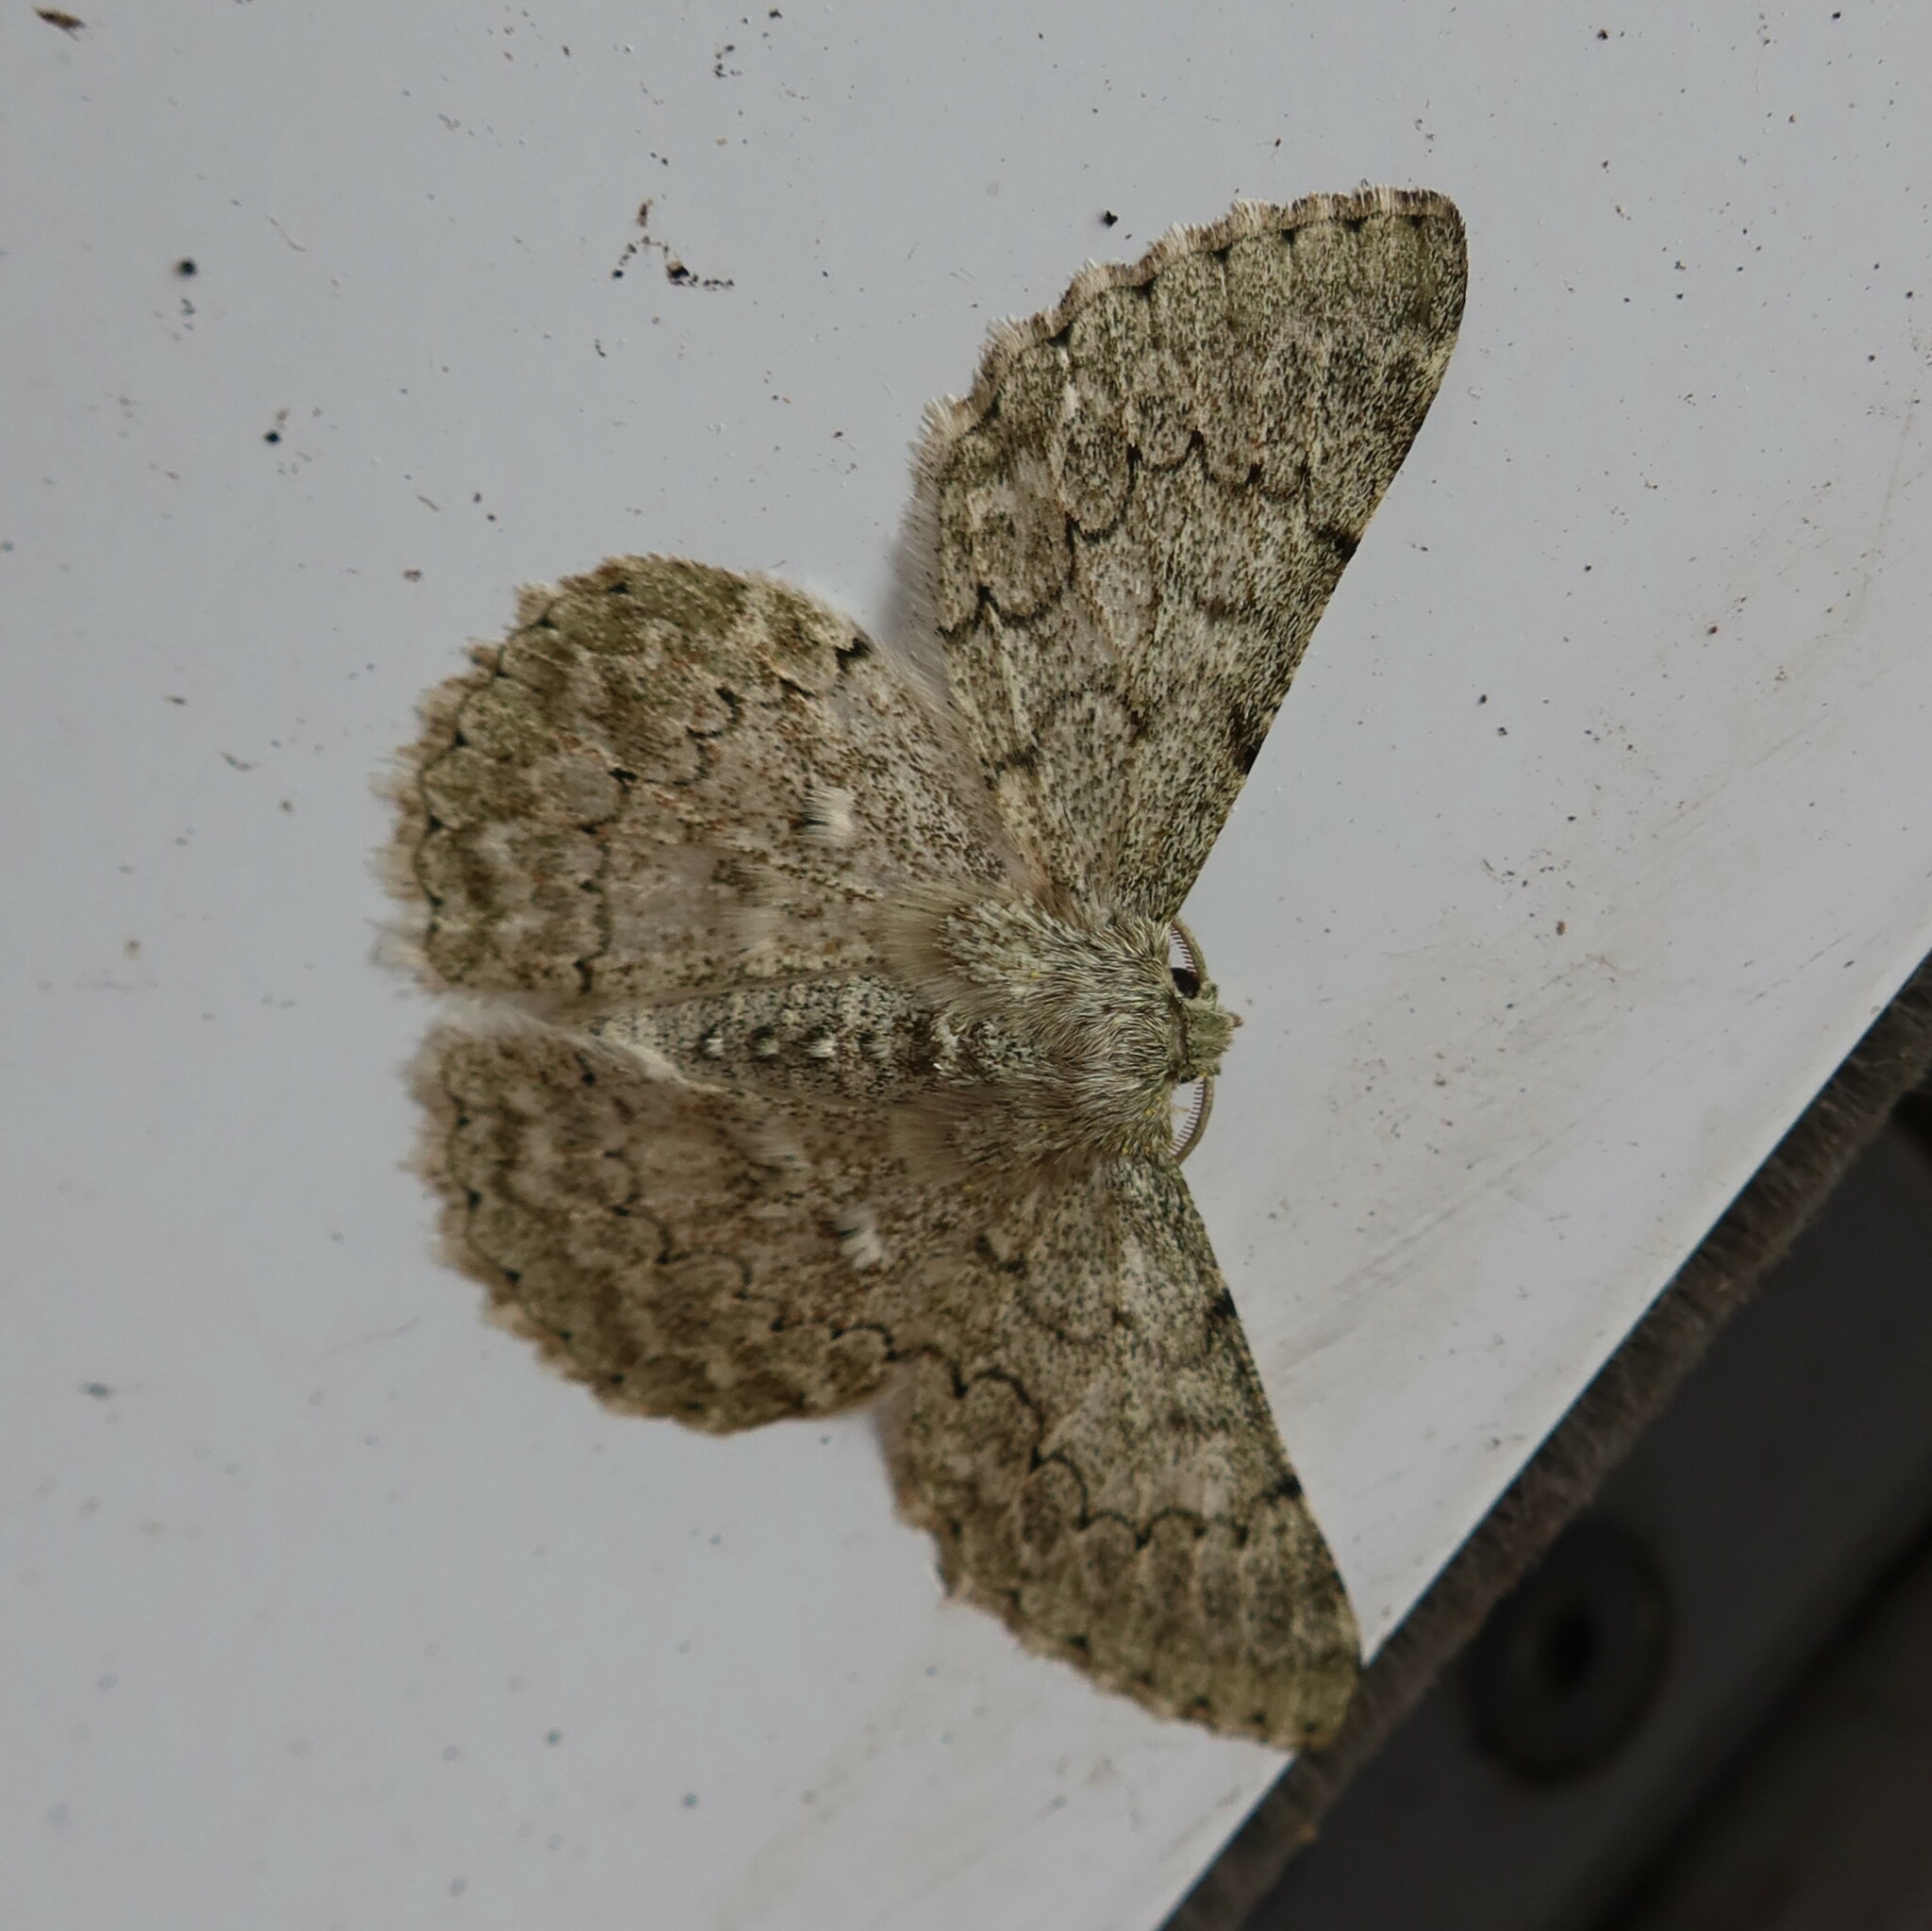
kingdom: Animalia
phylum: Arthropoda
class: Insecta
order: Lepidoptera
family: Geometridae
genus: Pingasa
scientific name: Pingasa abyssiniaria
